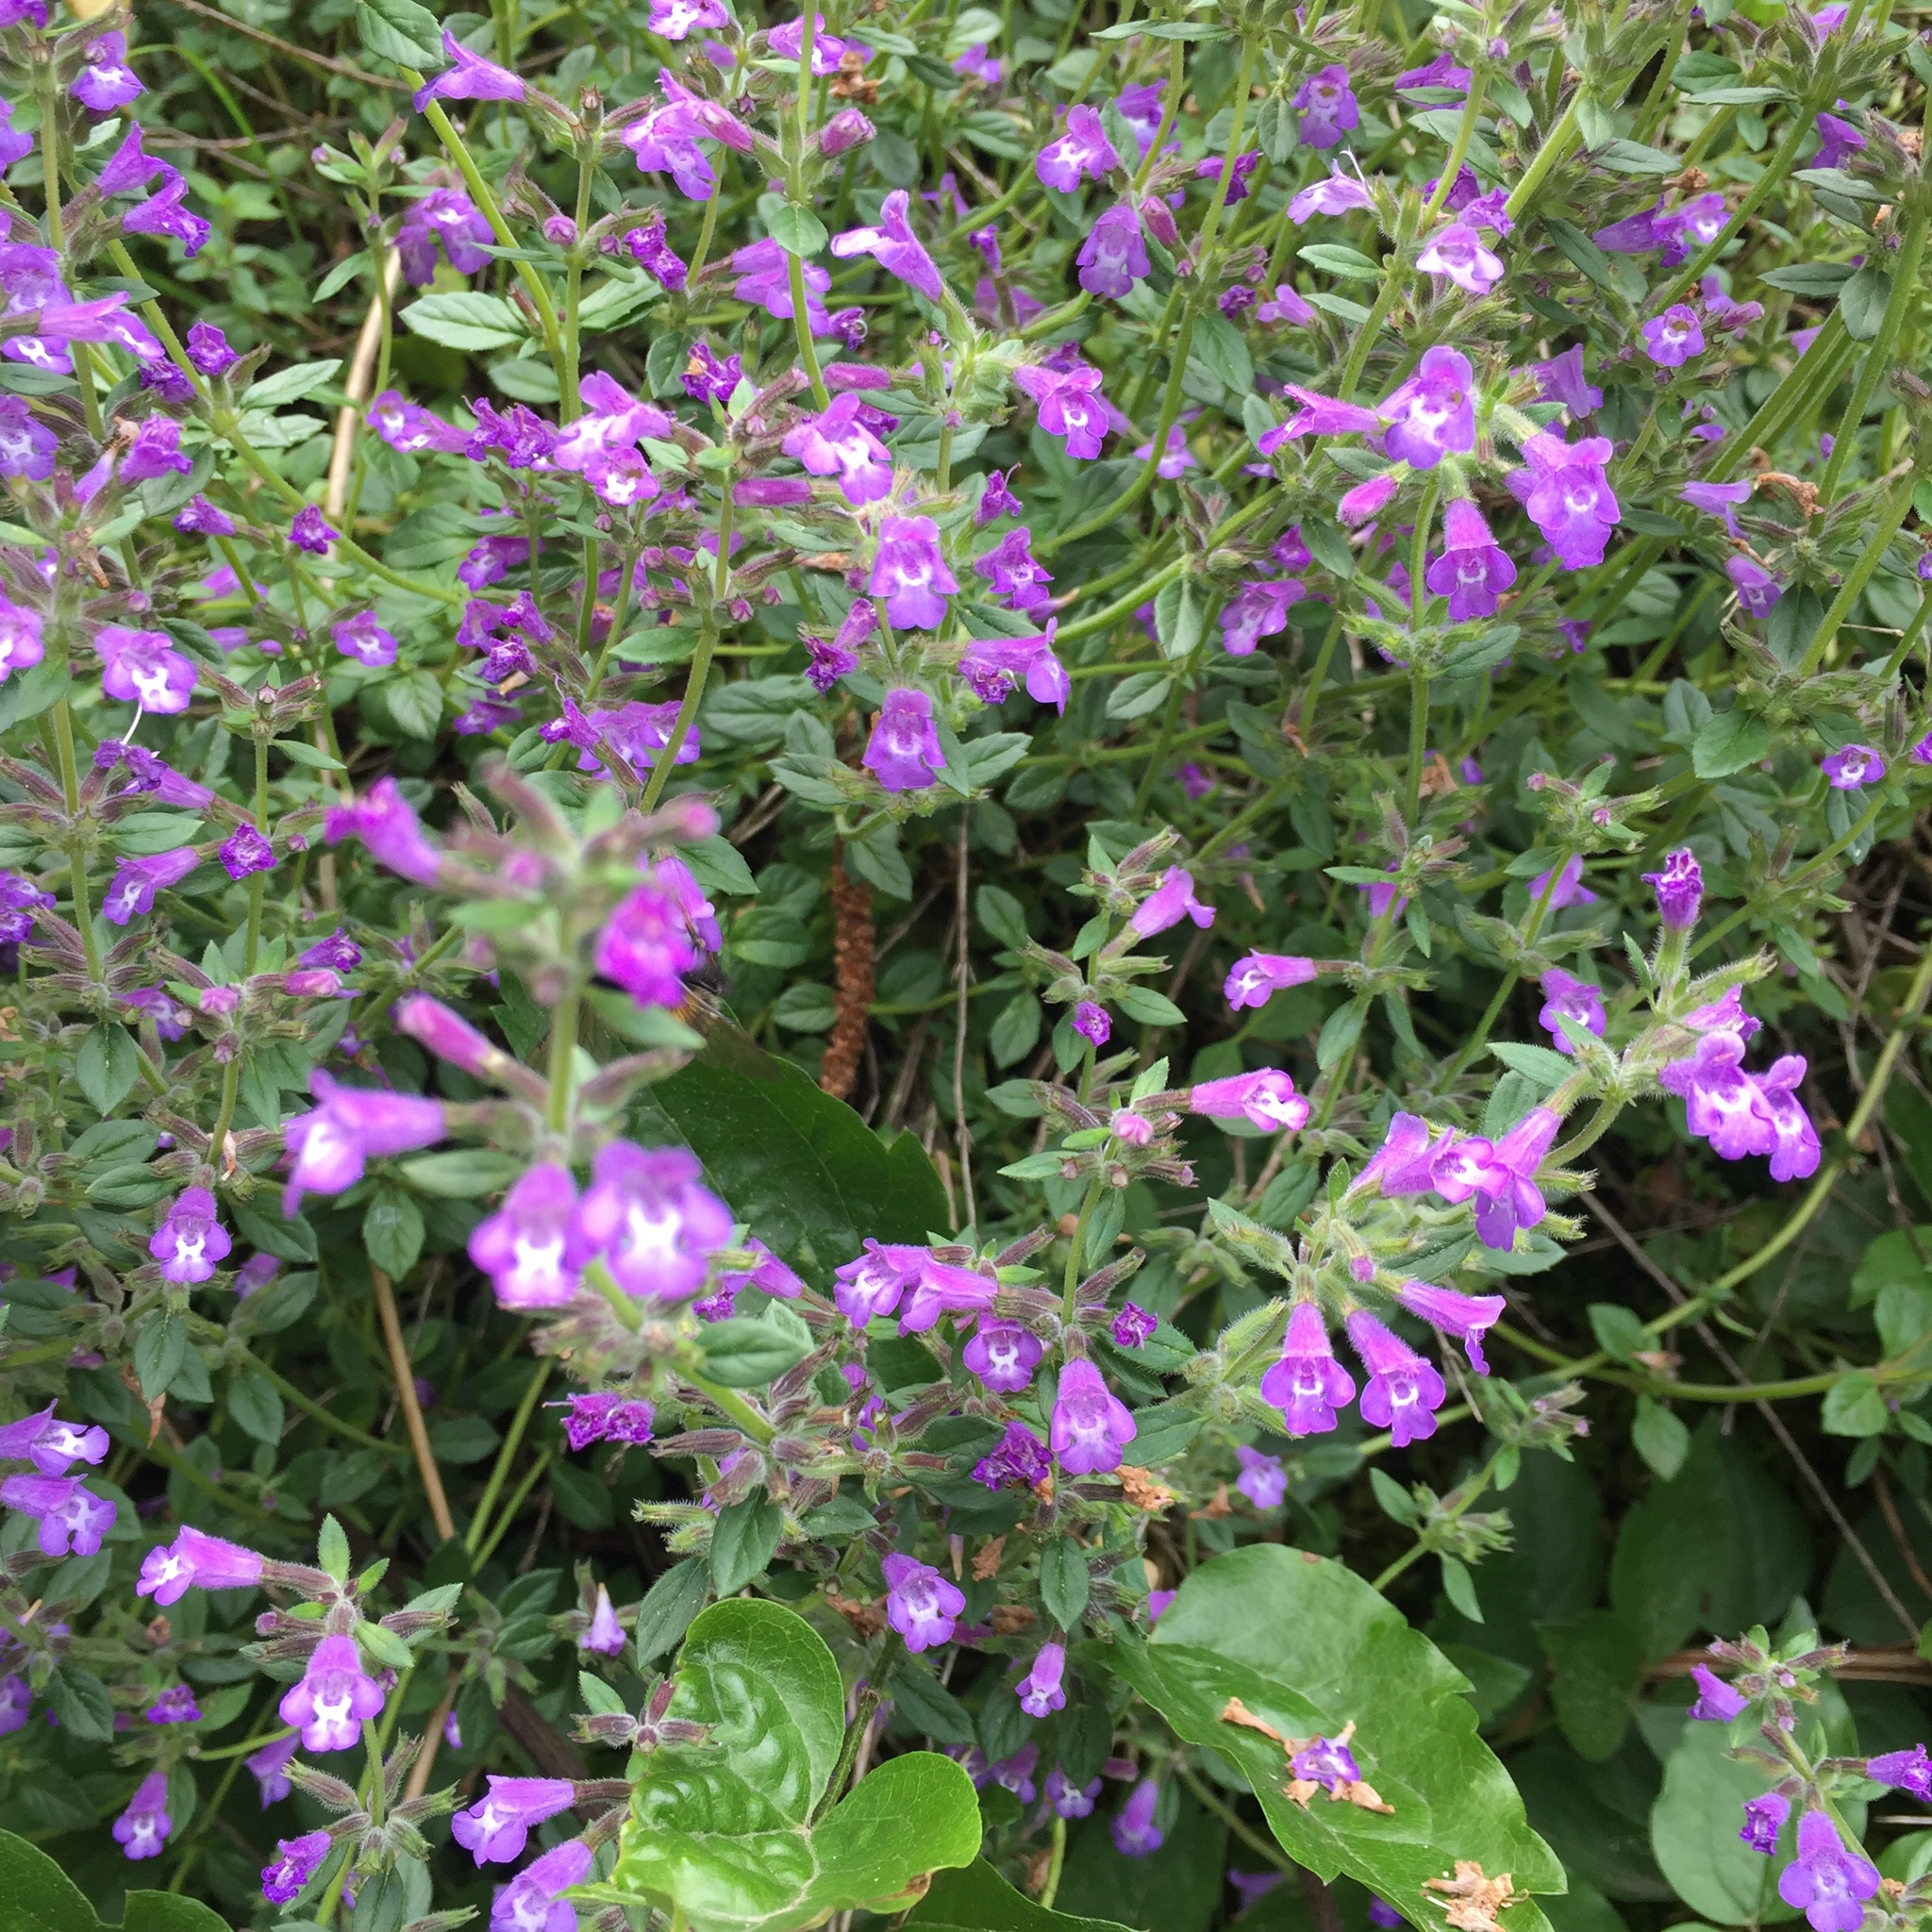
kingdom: Plantae
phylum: Tracheophyta
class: Magnoliopsida
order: Lamiales
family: Lamiaceae
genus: Clinopodium
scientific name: Clinopodium alpinum
